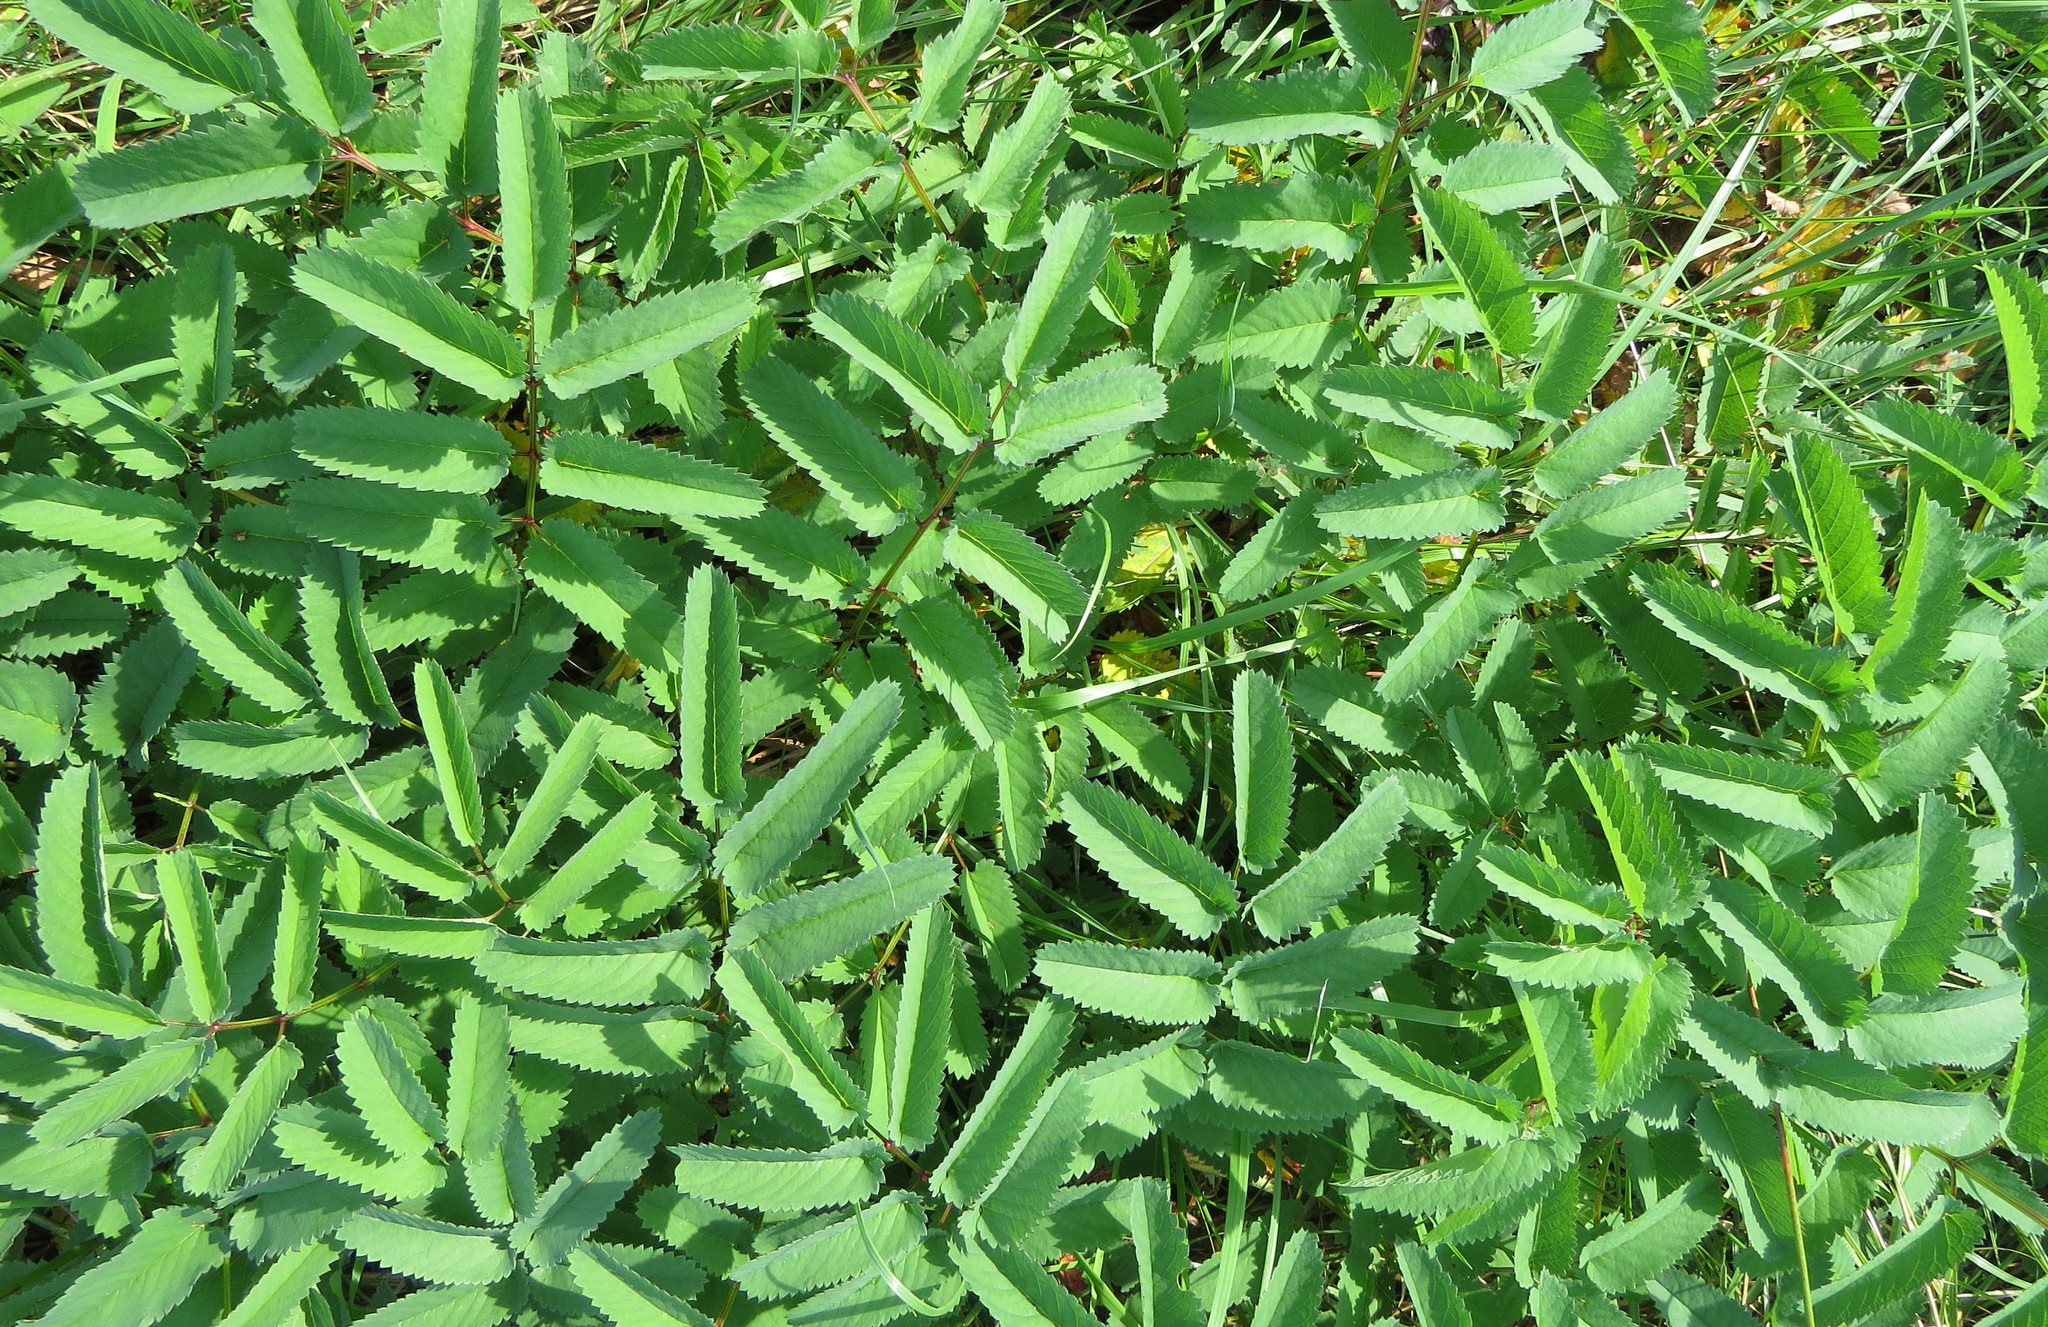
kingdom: Plantae
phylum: Tracheophyta
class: Magnoliopsida
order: Rosales
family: Rosaceae
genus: Sanguisorba
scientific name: Sanguisorba canadensis
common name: White burnet
